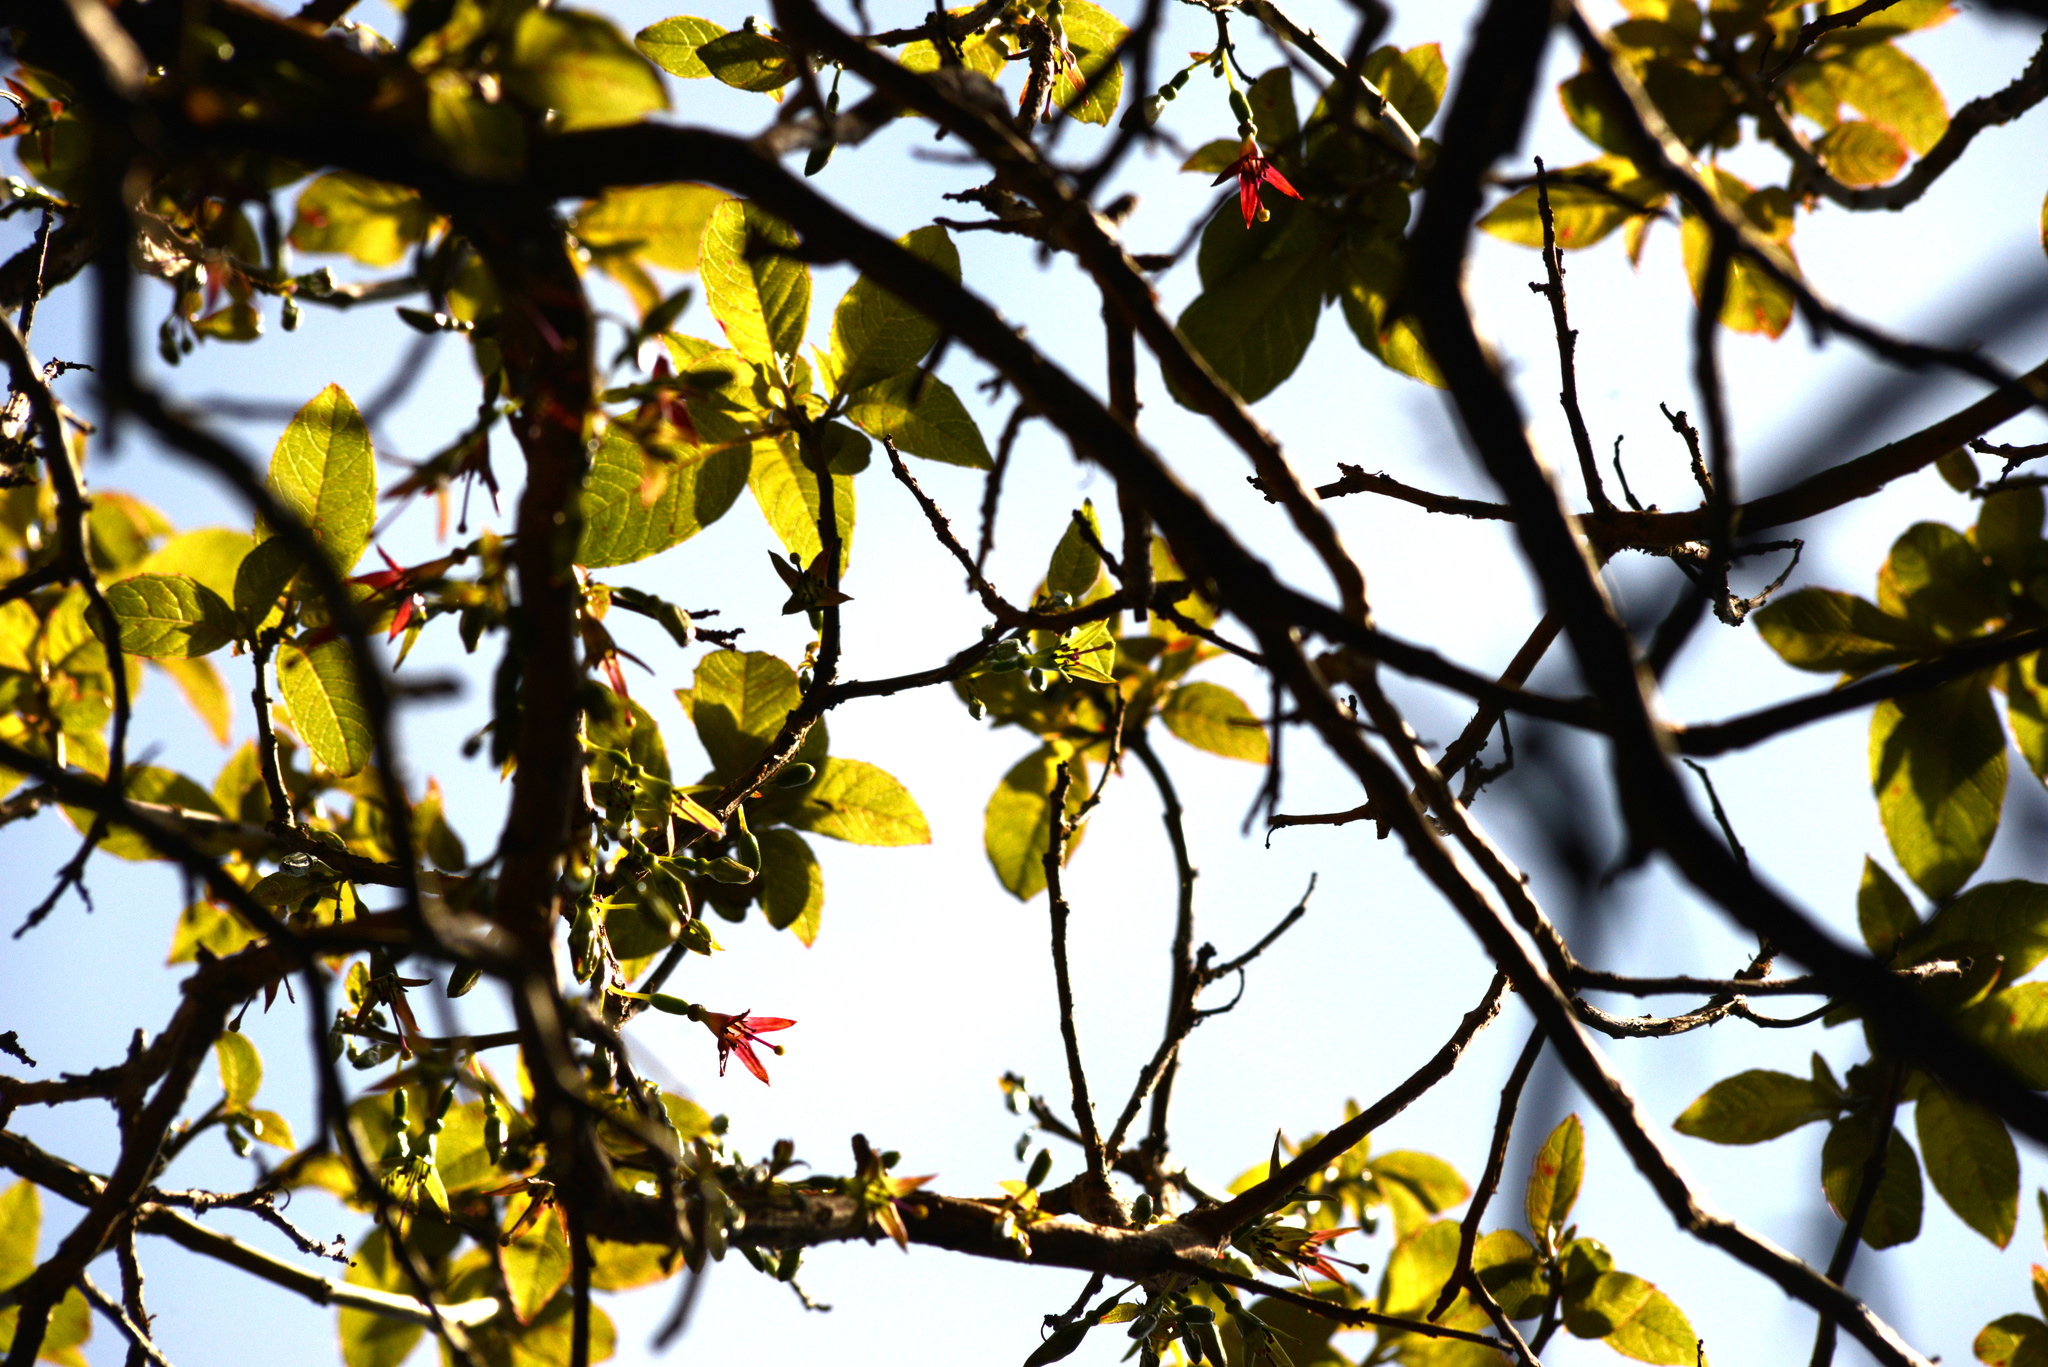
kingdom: Plantae
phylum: Tracheophyta
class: Magnoliopsida
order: Myrtales
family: Onagraceae
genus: Fuchsia
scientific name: Fuchsia excorticata
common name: Tree fuchsia
